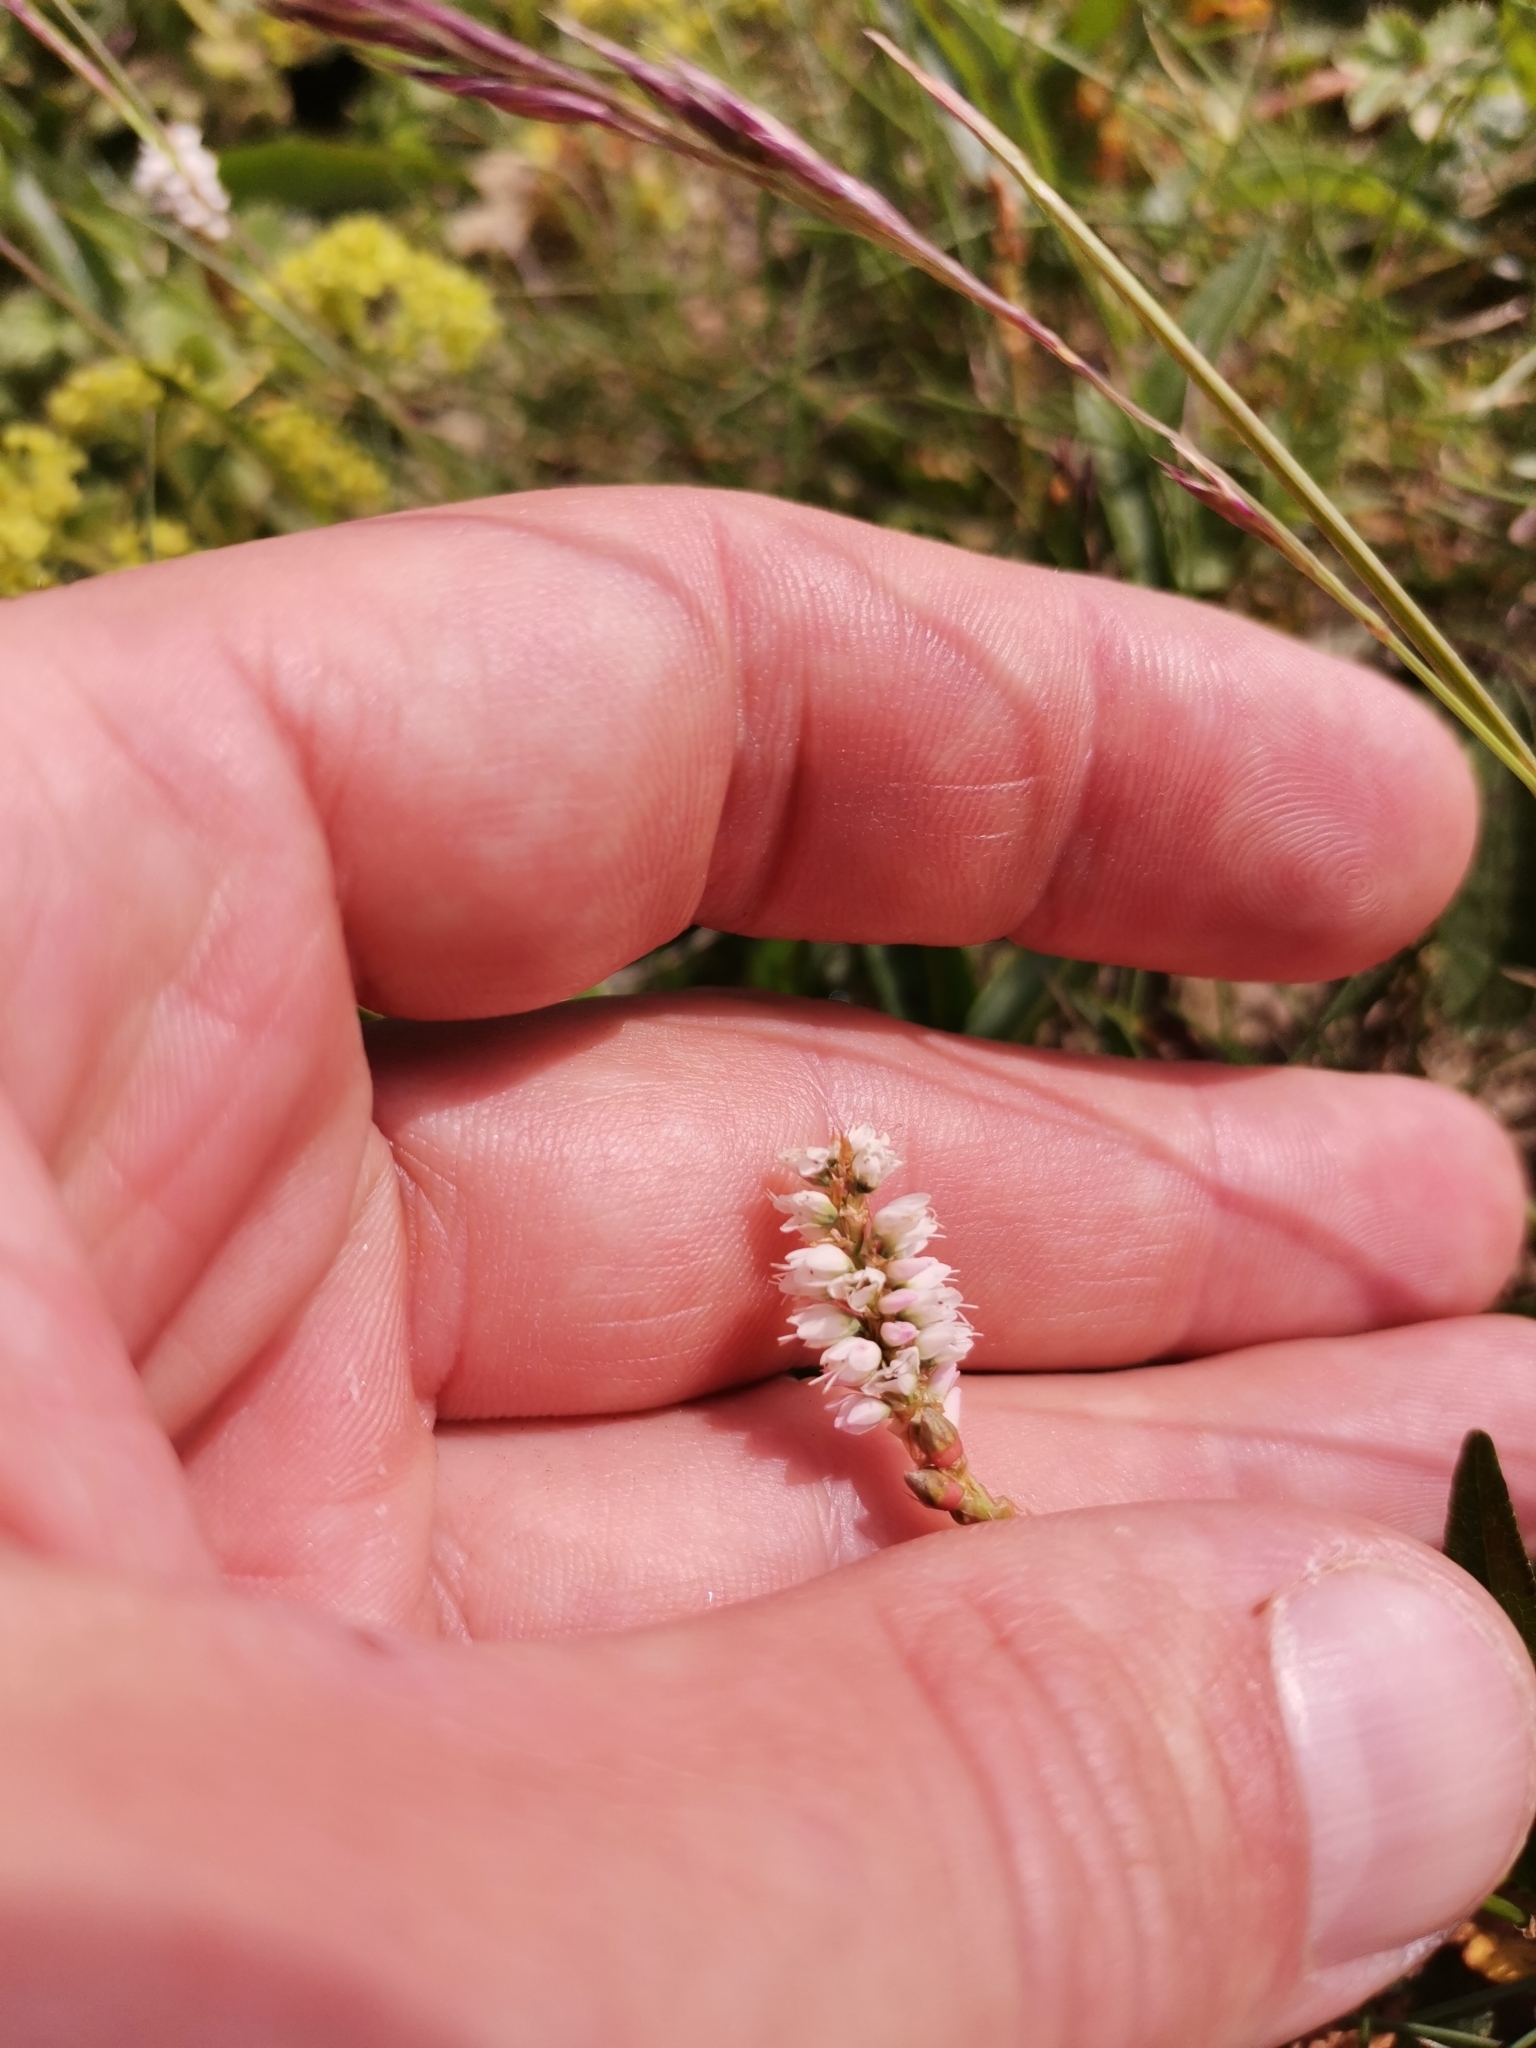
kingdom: Plantae
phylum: Tracheophyta
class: Magnoliopsida
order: Caryophyllales
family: Polygonaceae
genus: Bistorta
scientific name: Bistorta vivipara
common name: Alpine bistort
